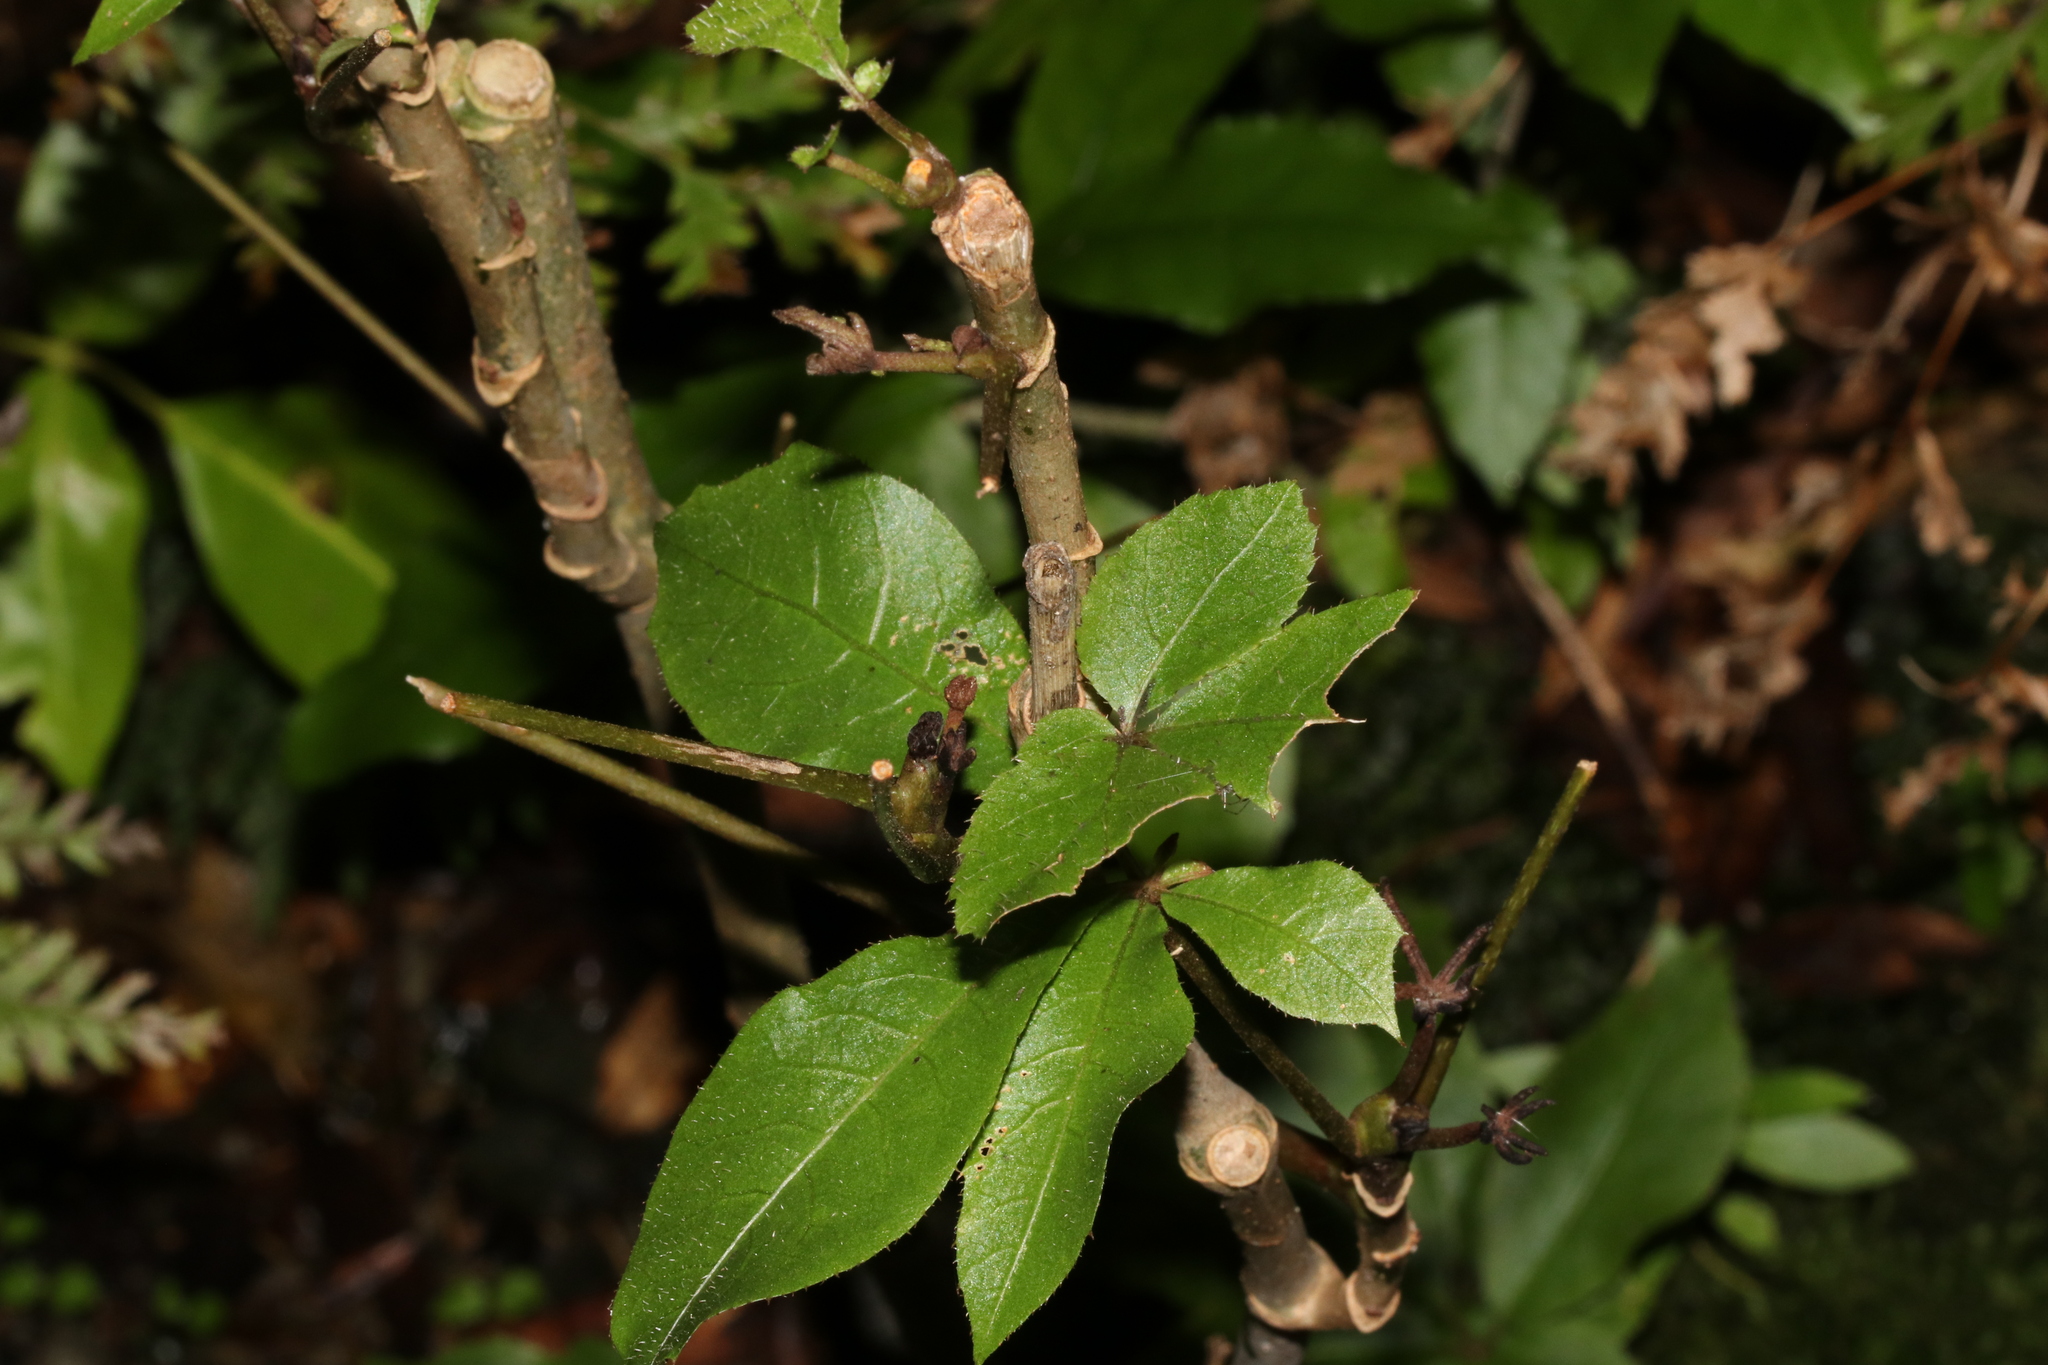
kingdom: Plantae
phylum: Tracheophyta
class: Magnoliopsida
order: Apiales
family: Araliaceae
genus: Schefflera
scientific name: Schefflera digitata
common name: Pate
